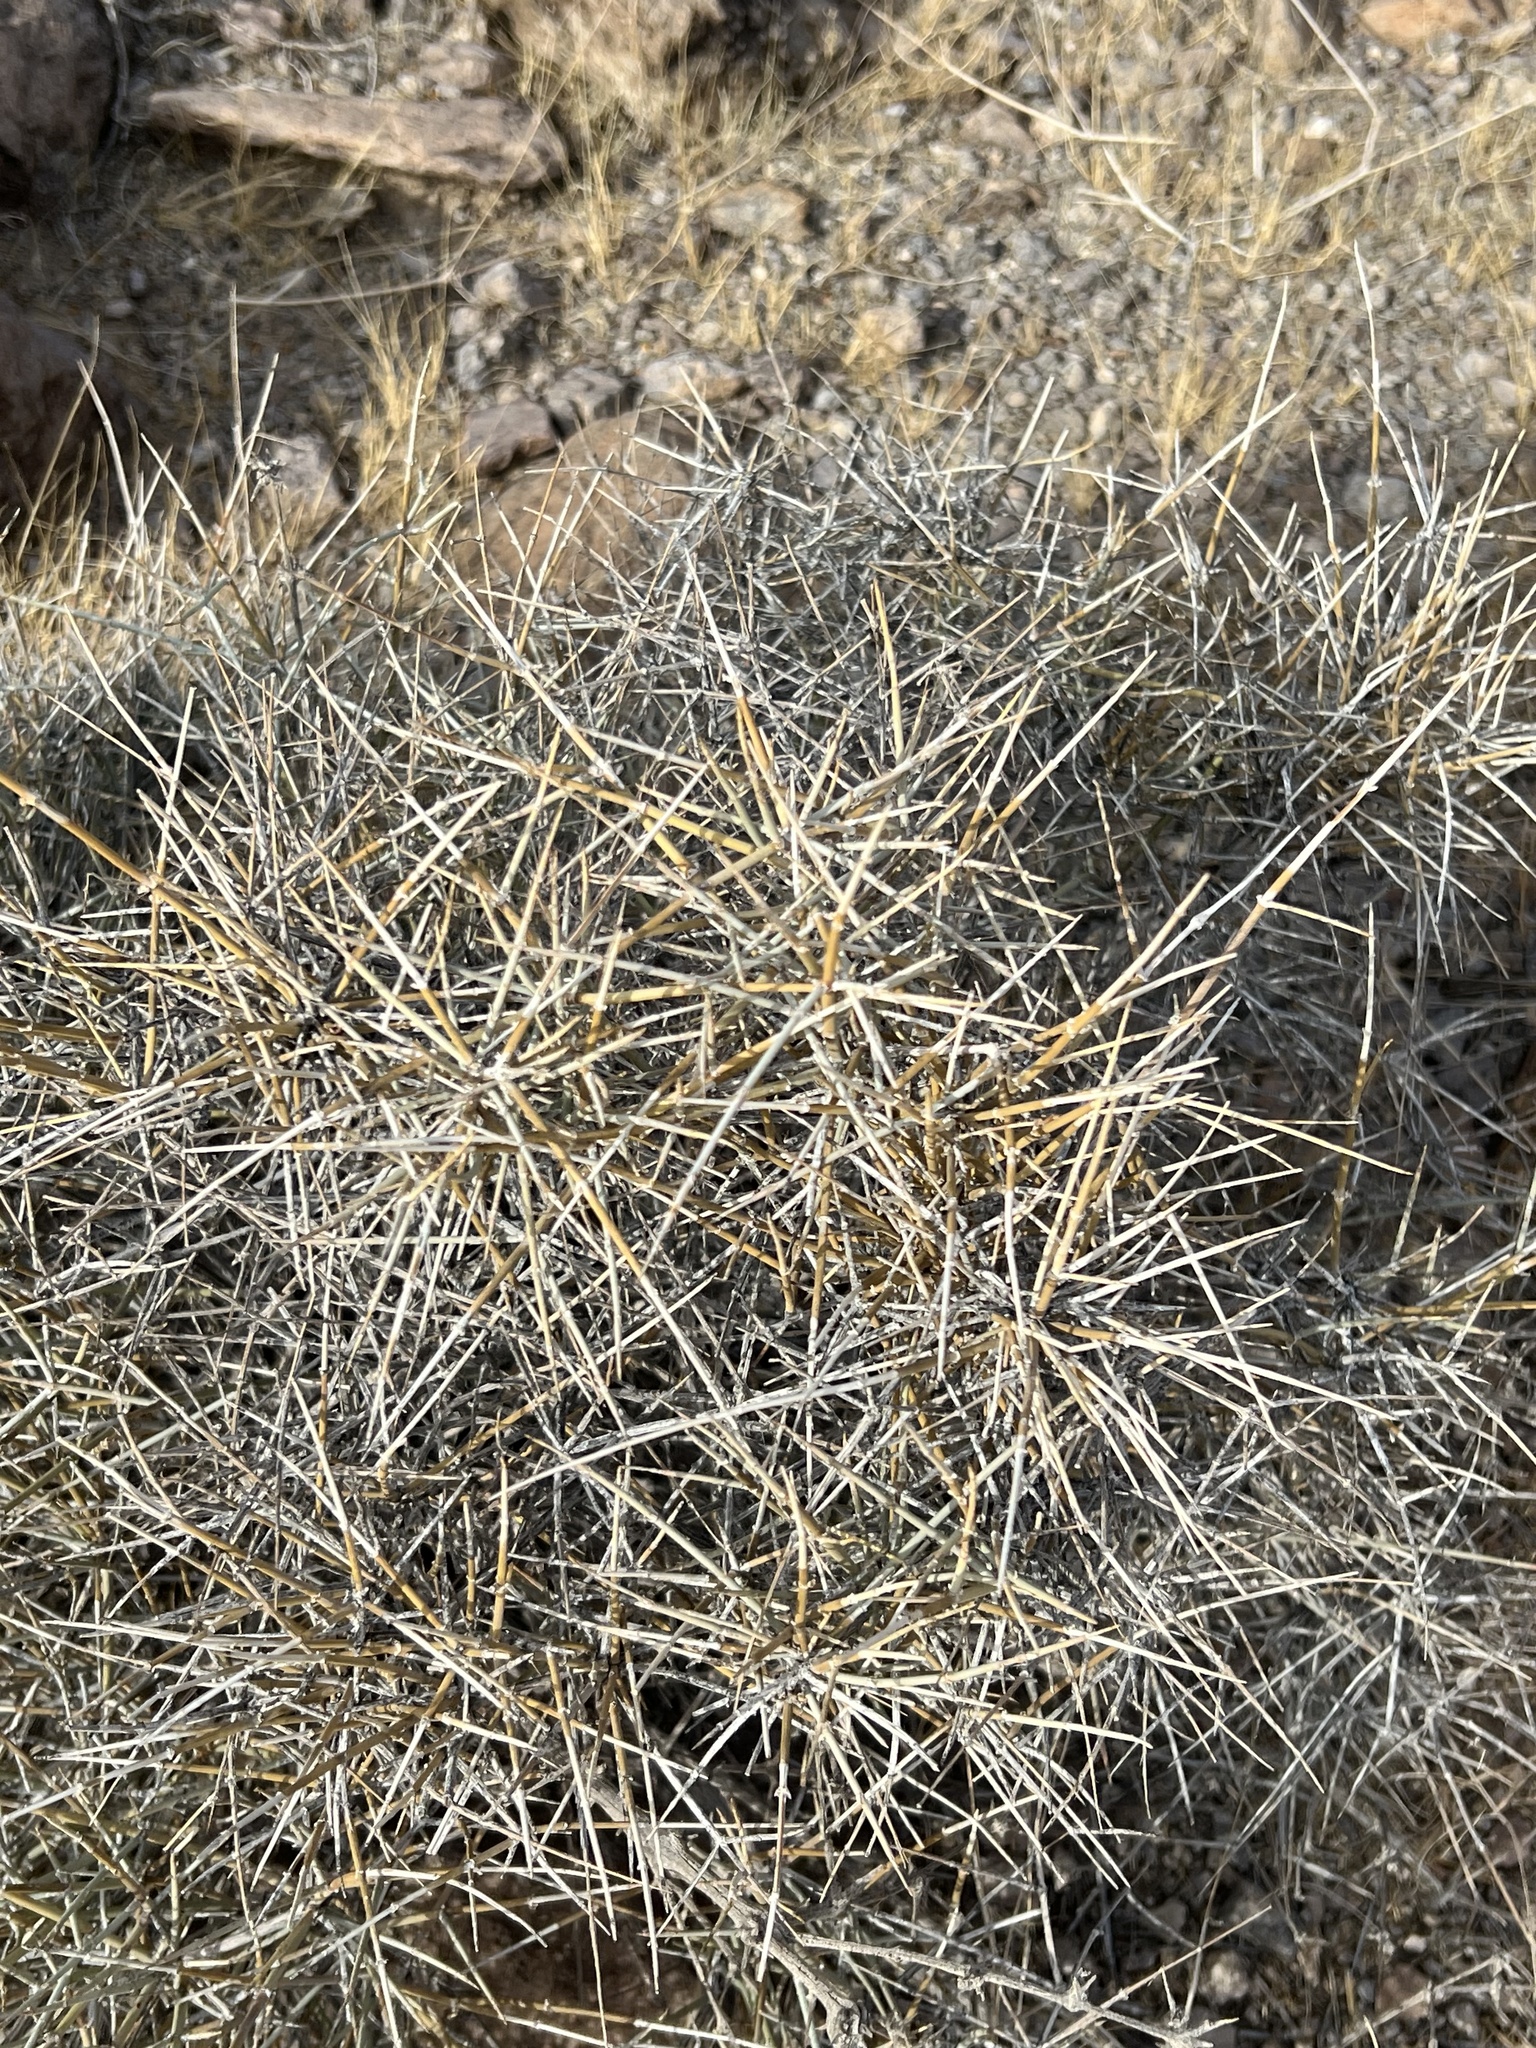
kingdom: Plantae
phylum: Tracheophyta
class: Gnetopsida
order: Ephedrales
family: Ephedraceae
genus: Ephedra
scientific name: Ephedra nevadensis
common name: Gray ephedra
